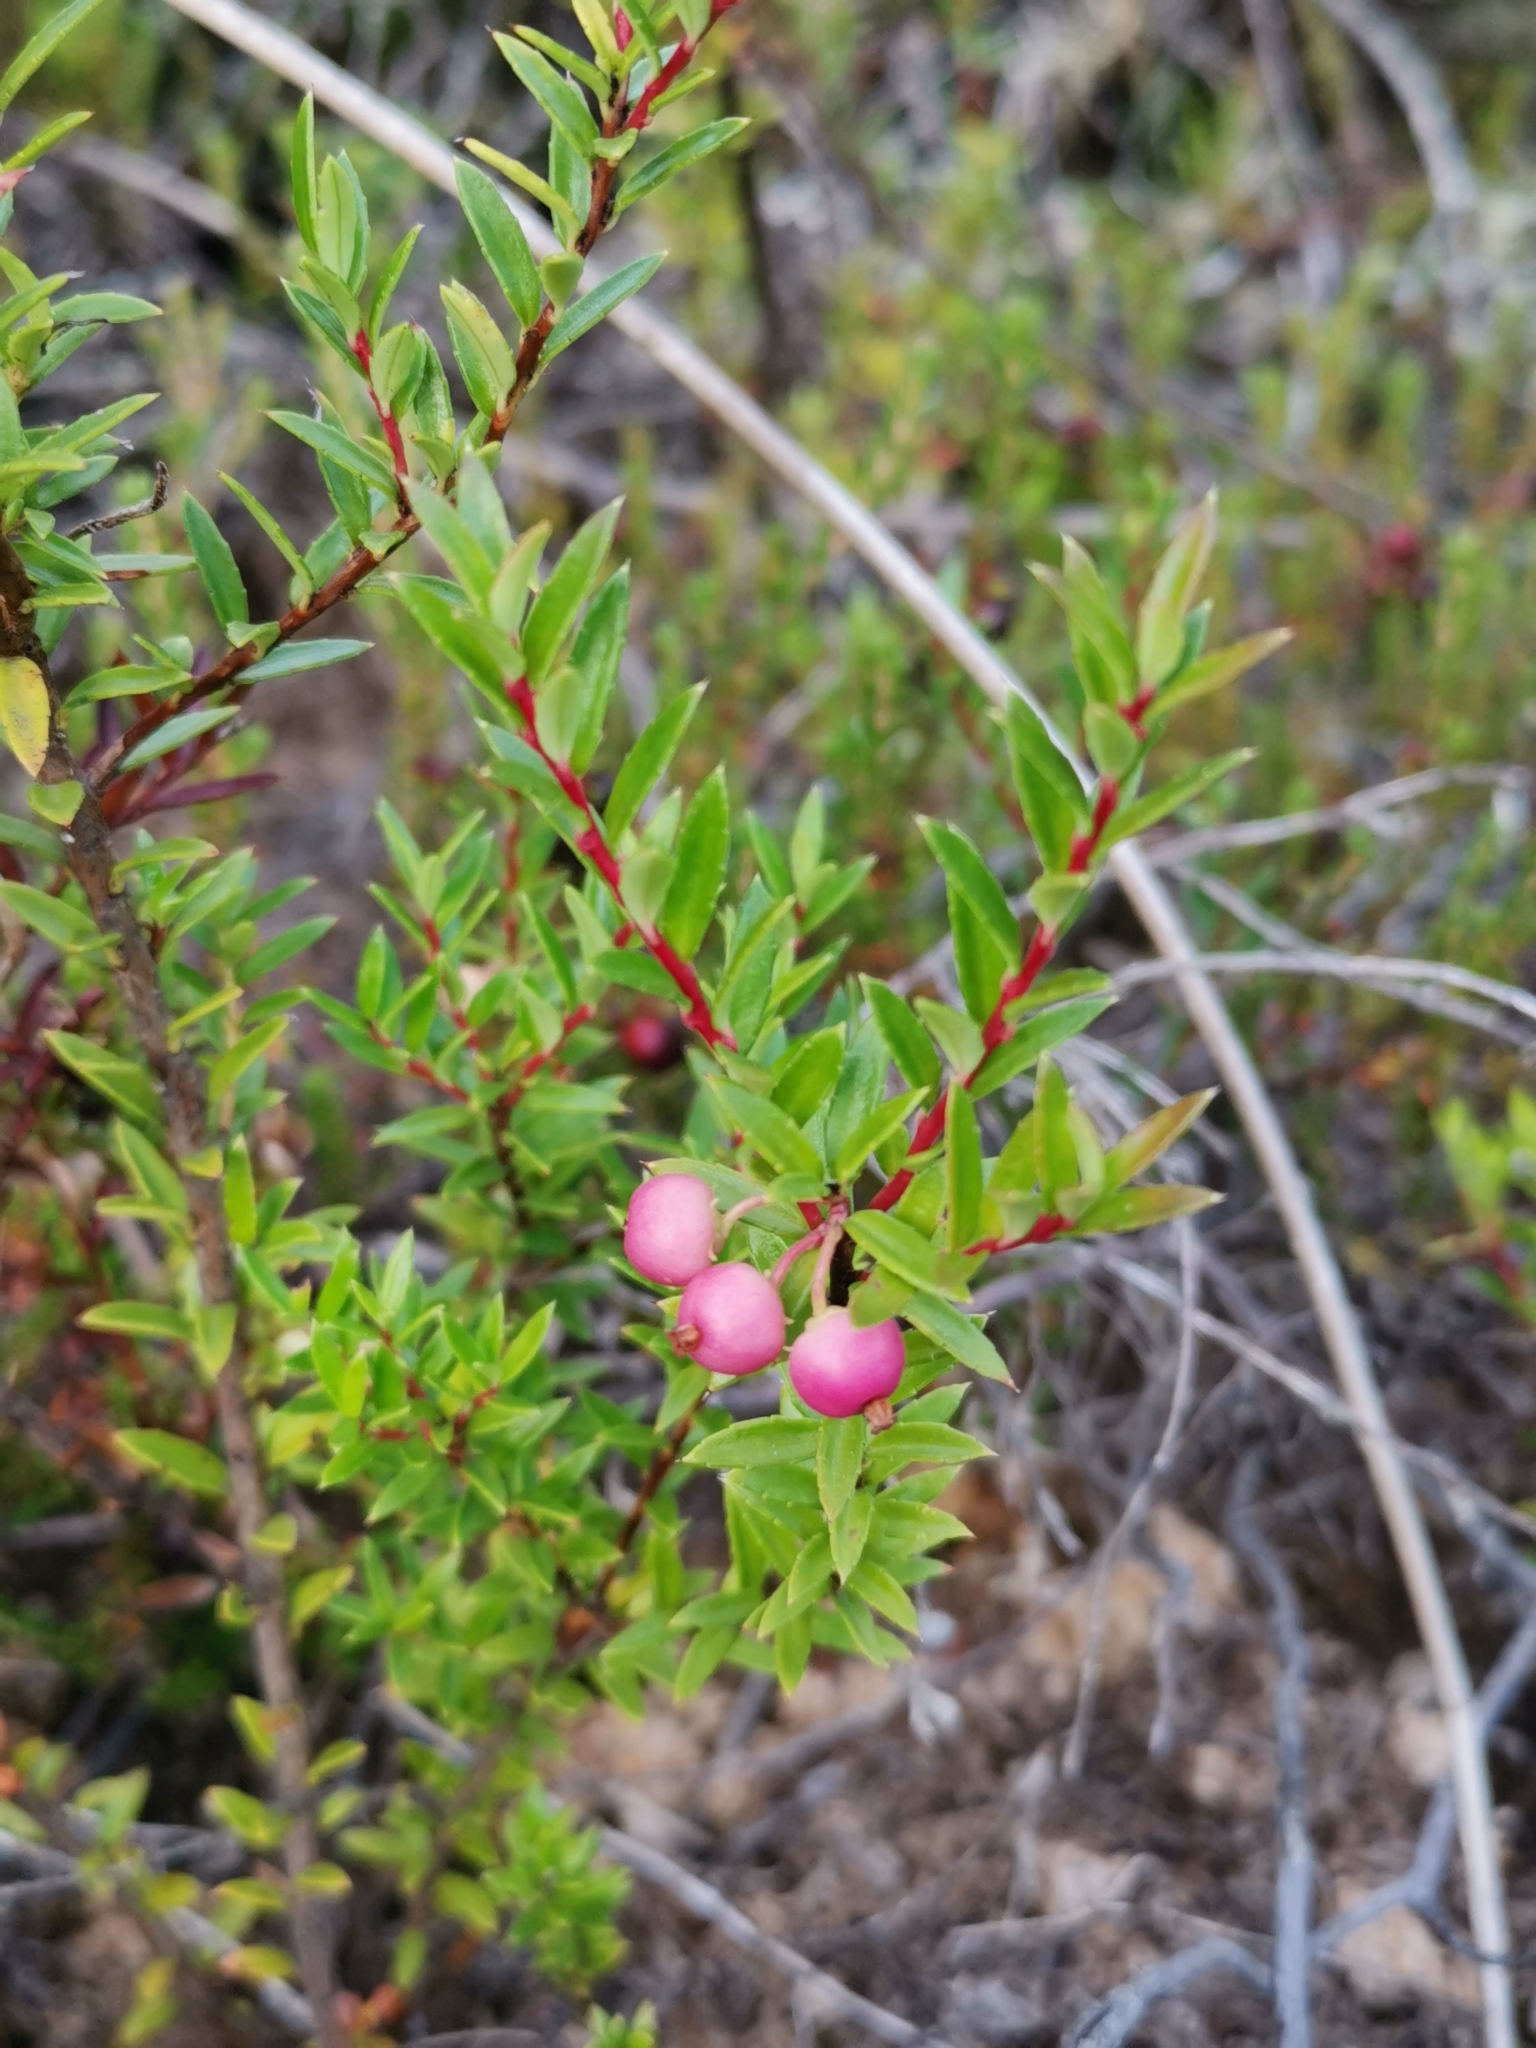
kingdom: Plantae
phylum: Tracheophyta
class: Magnoliopsida
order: Ericales
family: Ericaceae
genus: Gaultheria
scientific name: Gaultheria mucronata
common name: Prickly heath
